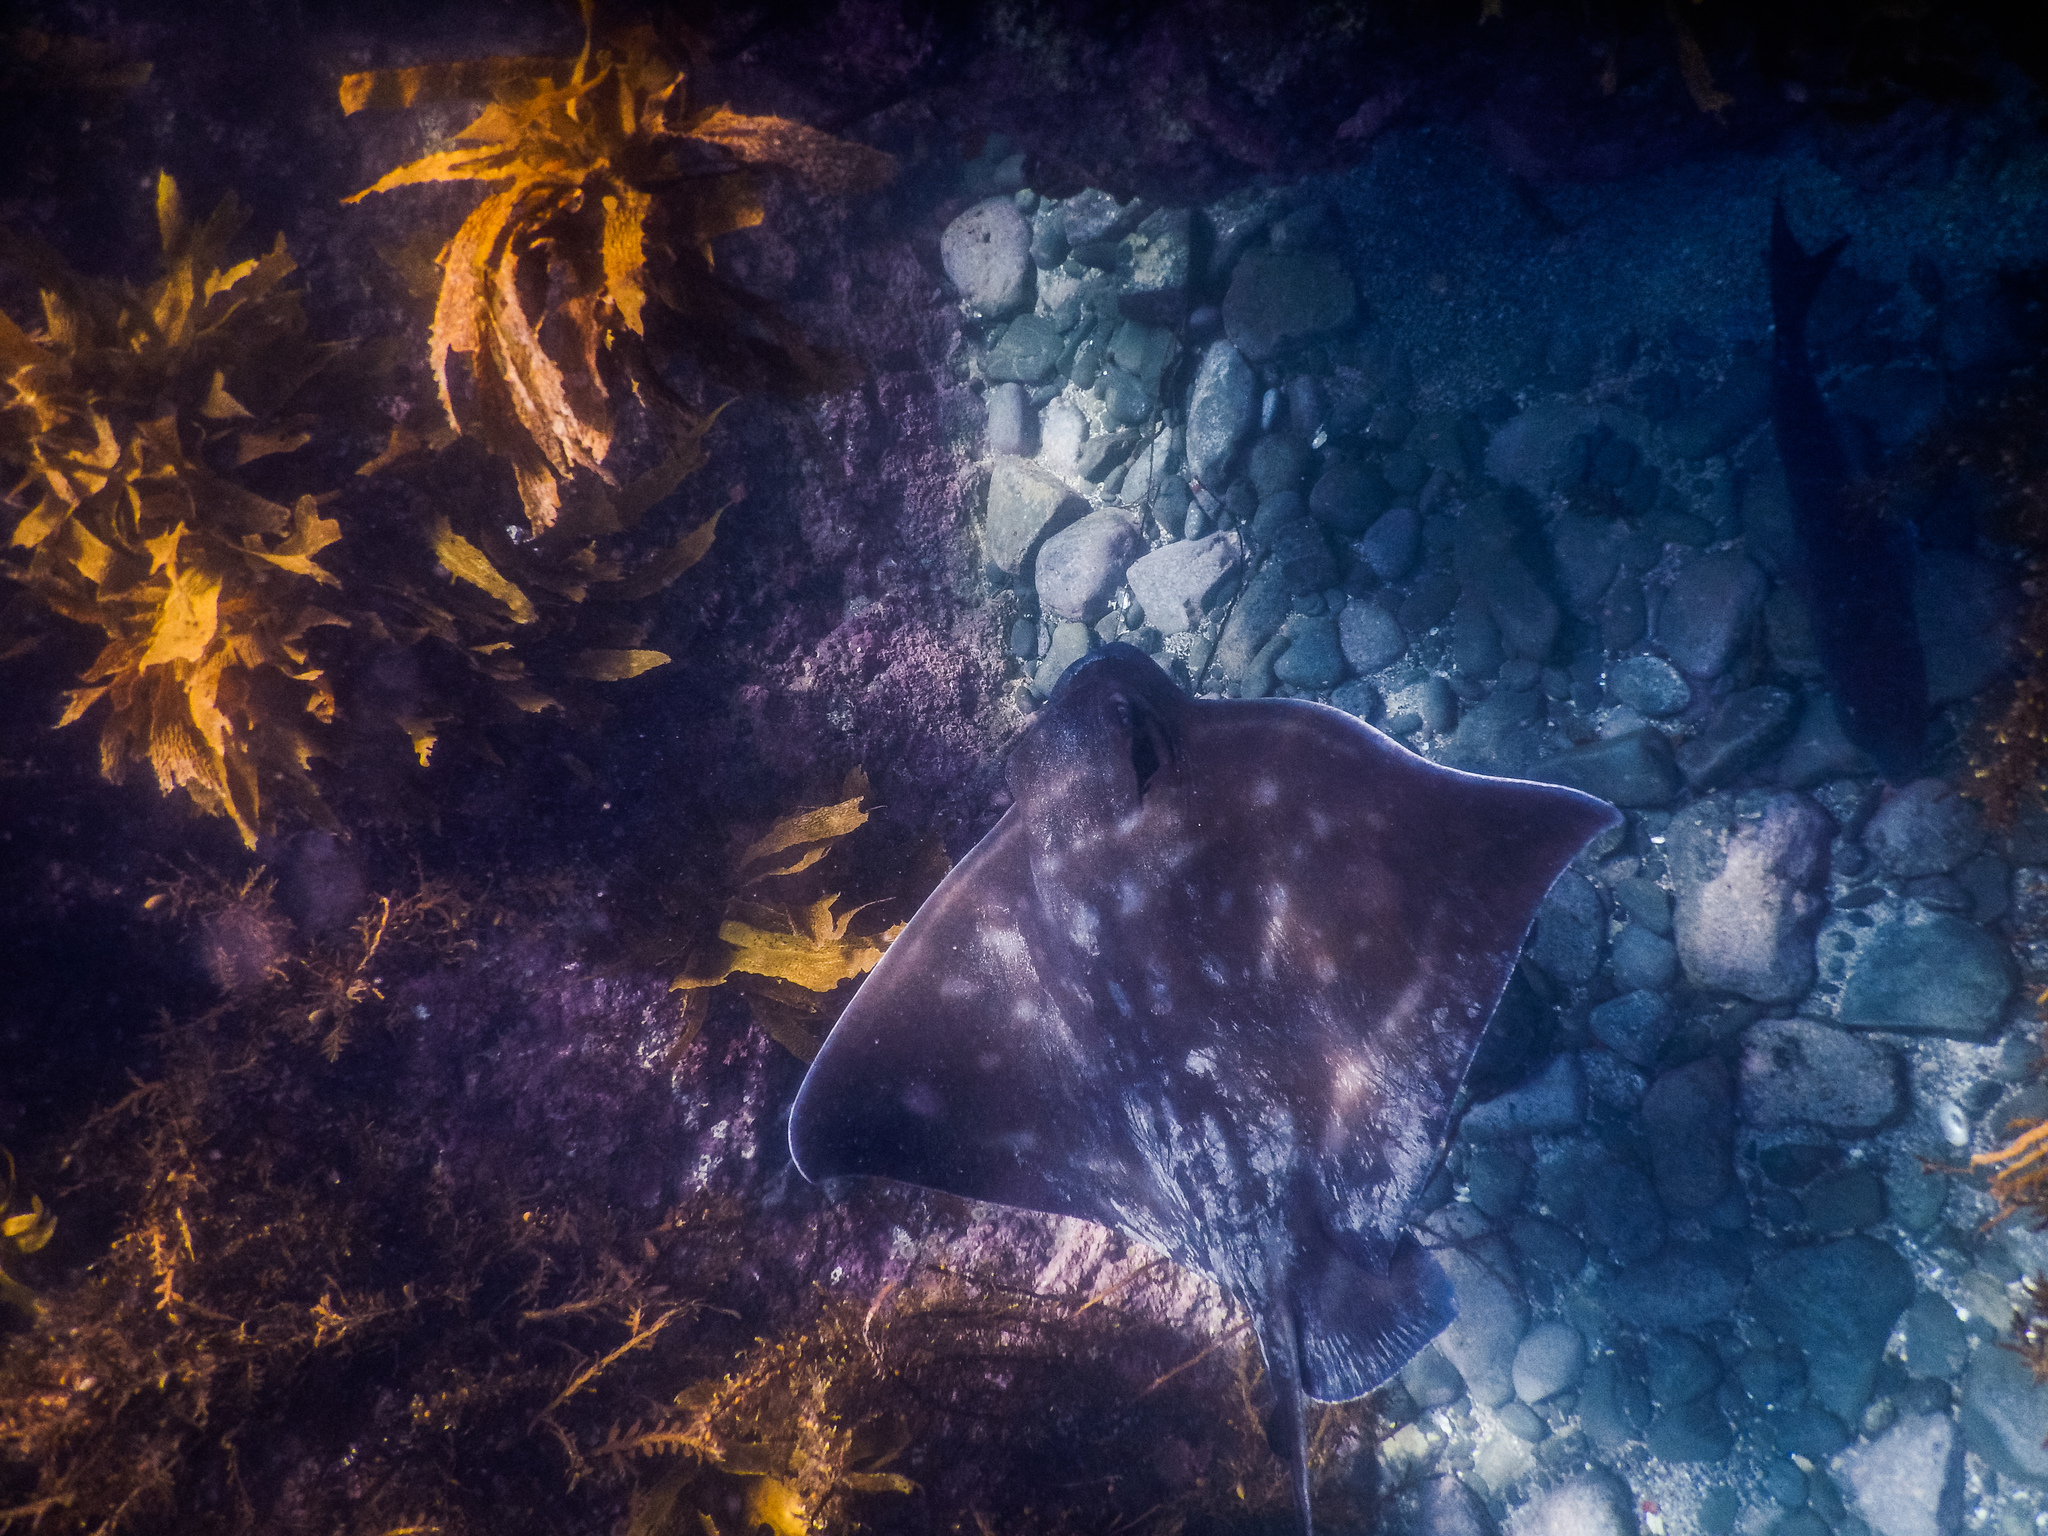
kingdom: Animalia
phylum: Chordata
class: Elasmobranchii
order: Myliobatiformes
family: Myliobatidae
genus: Myliobatis
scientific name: Myliobatis tenuicaudatus
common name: Eagle ray
